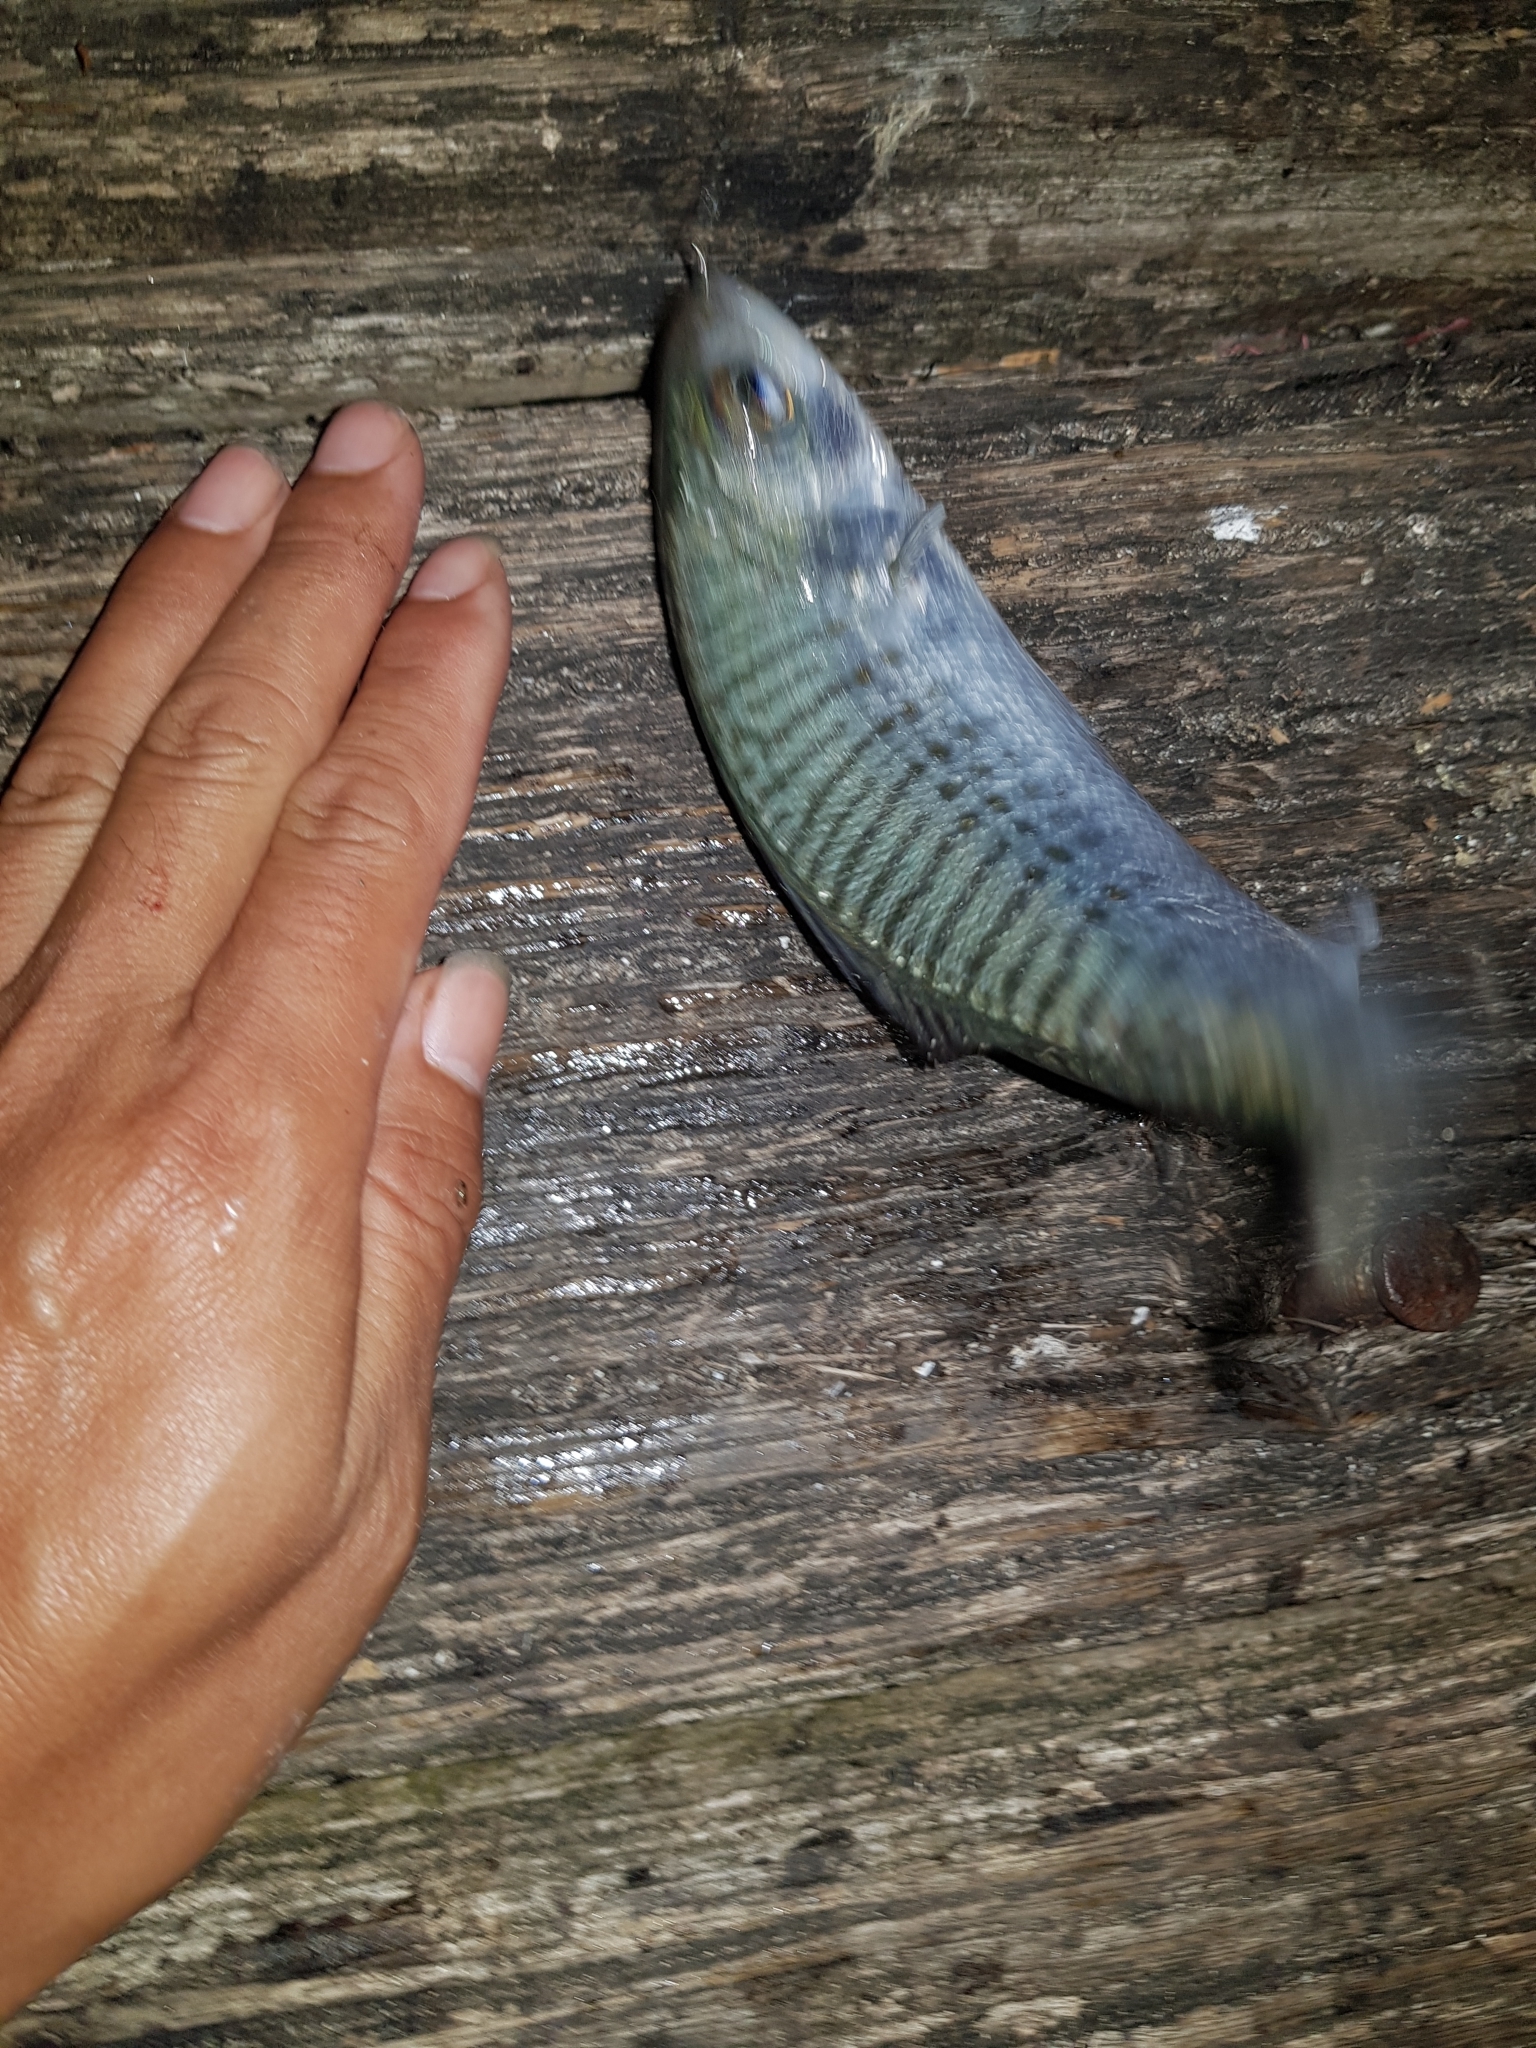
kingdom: Animalia
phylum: Chordata
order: Perciformes
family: Arripidae
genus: Arripis
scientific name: Arripis georgianus
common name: Australian herring
